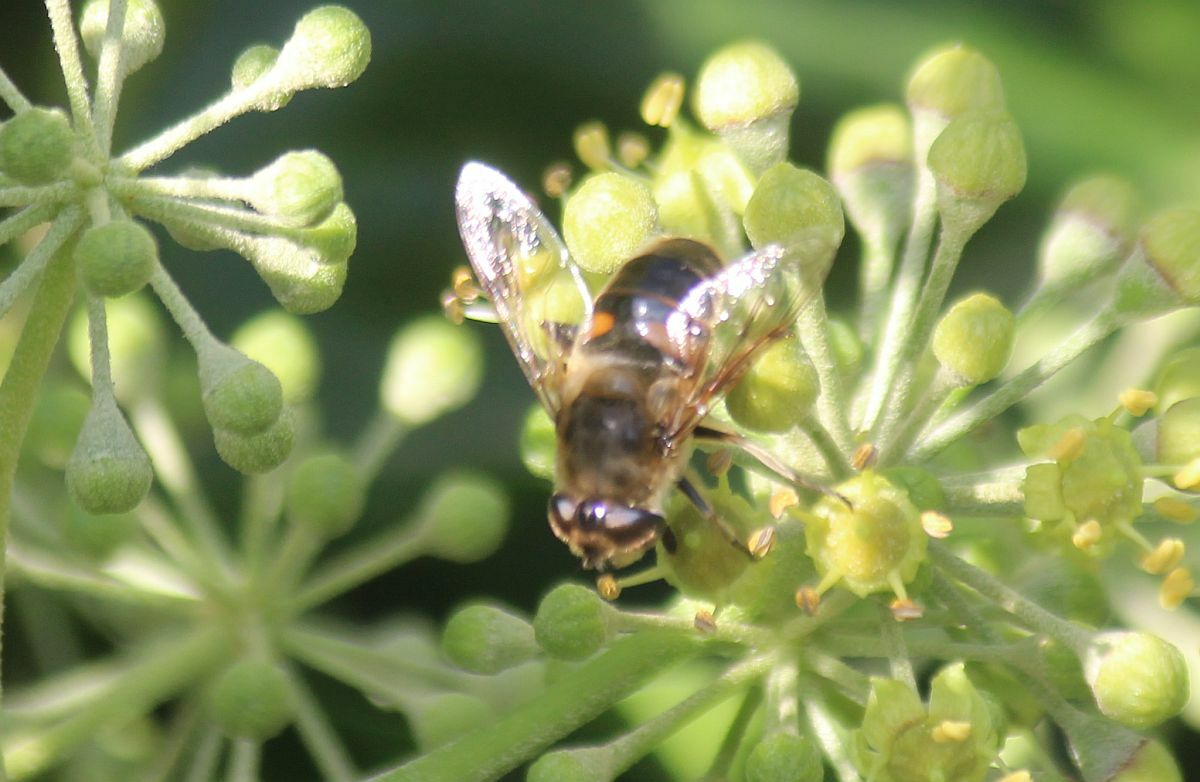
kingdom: Animalia
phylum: Arthropoda
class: Insecta
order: Diptera
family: Syrphidae
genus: Eristalis
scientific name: Eristalis tenax
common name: Drone fly
